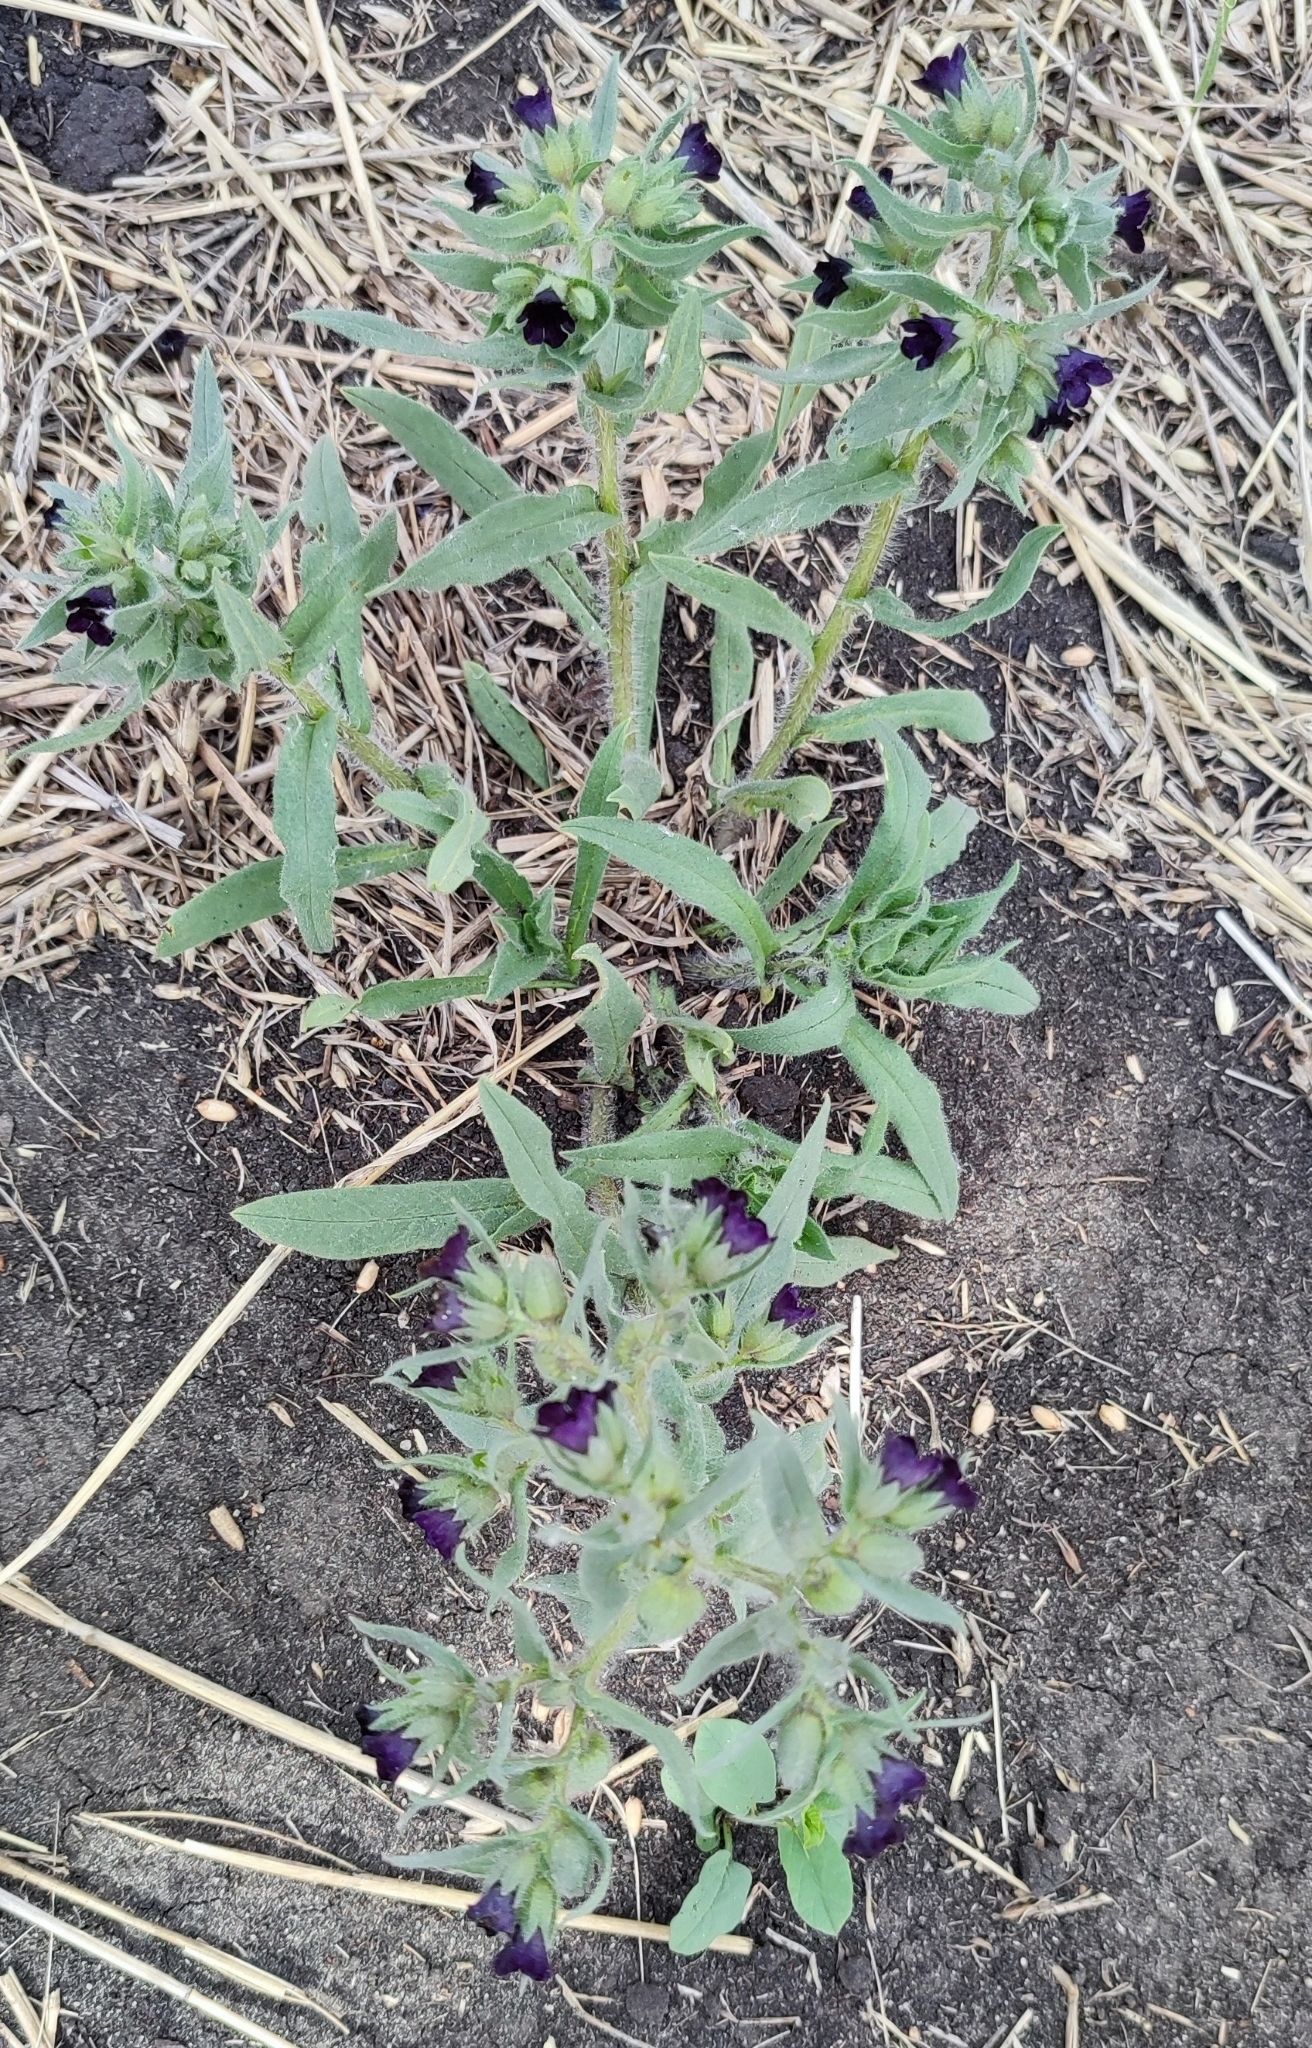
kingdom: Plantae
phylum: Tracheophyta
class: Magnoliopsida
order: Boraginales
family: Boraginaceae
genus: Nonea
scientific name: Nonea pulla
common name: Brown nonea
